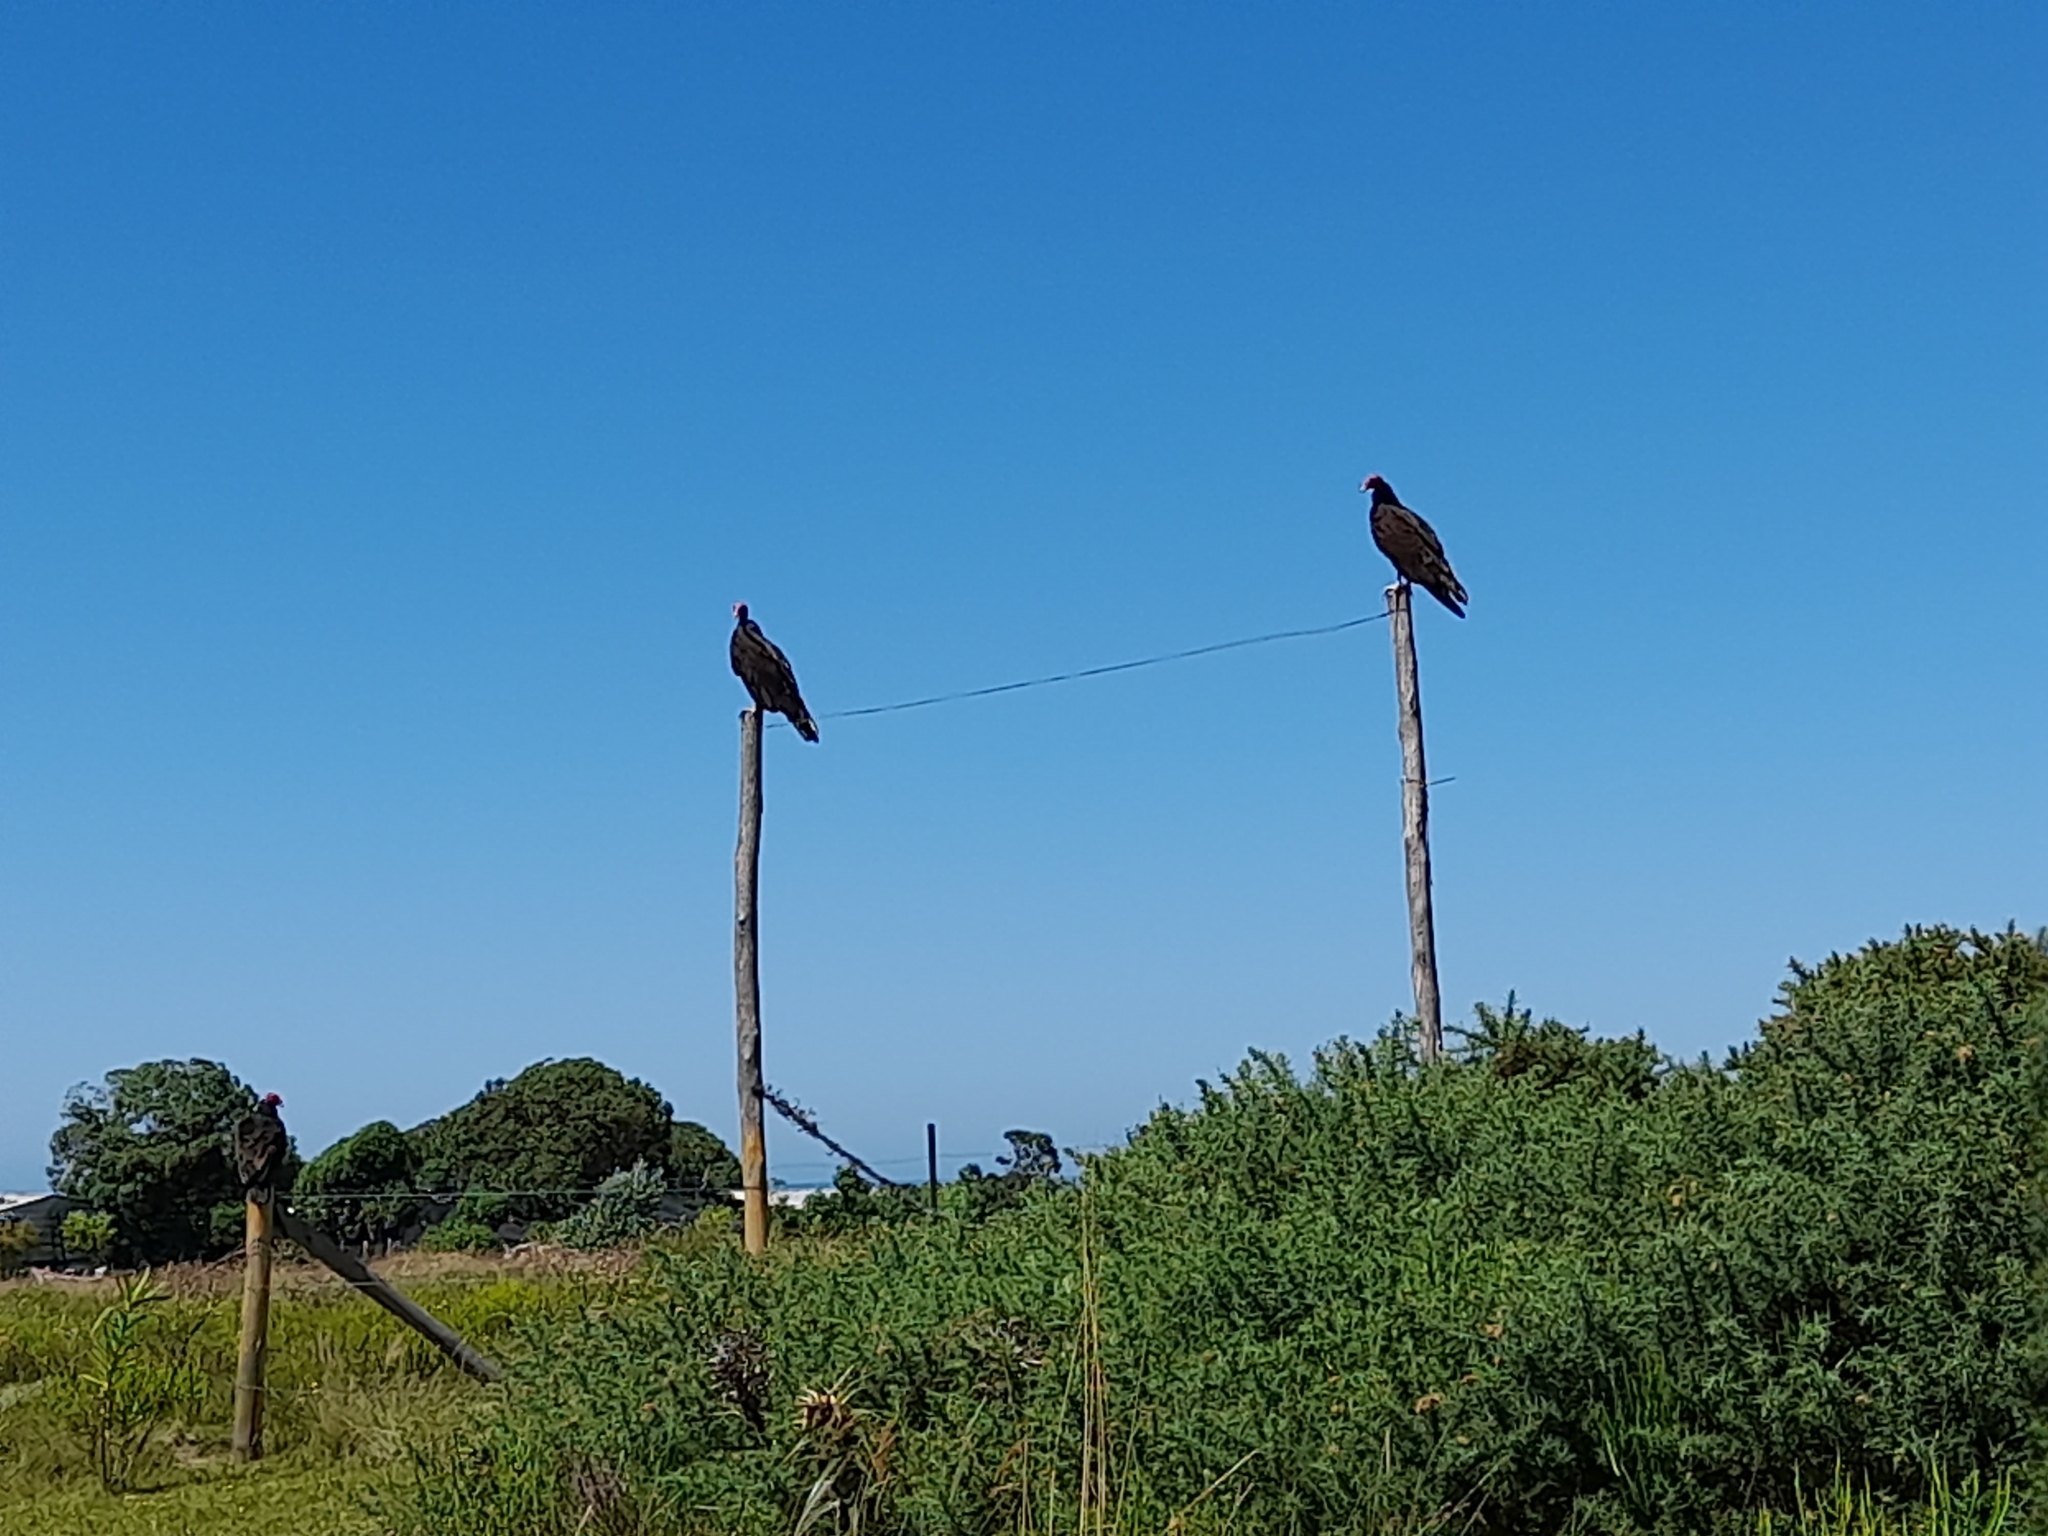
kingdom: Animalia
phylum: Chordata
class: Aves
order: Accipitriformes
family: Cathartidae
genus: Cathartes
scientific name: Cathartes aura
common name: Turkey vulture
